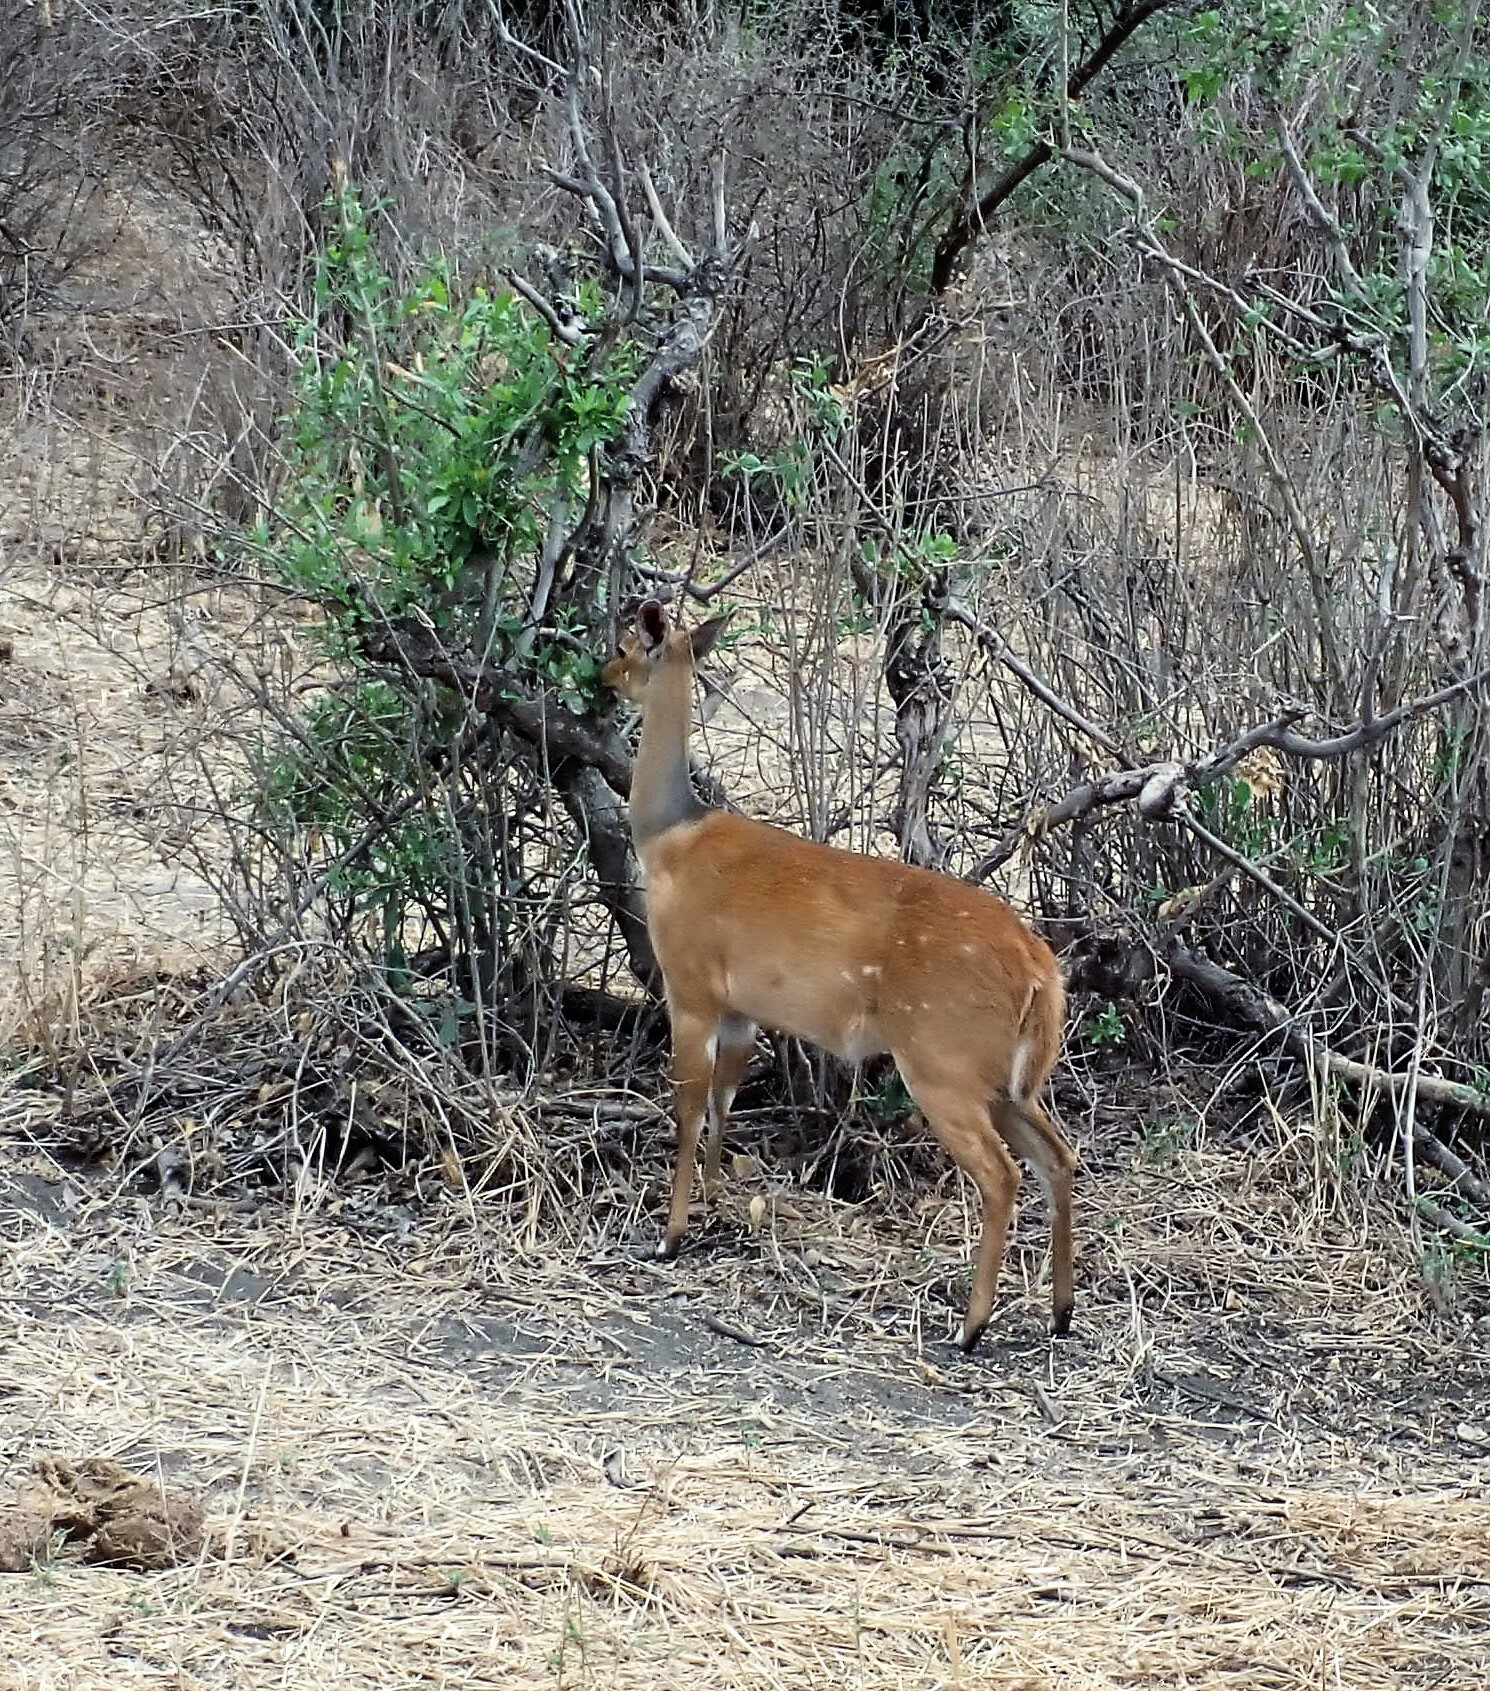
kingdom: Animalia
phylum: Chordata
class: Mammalia
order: Artiodactyla
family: Bovidae
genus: Tragelaphus
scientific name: Tragelaphus scriptus
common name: Bushbuck
